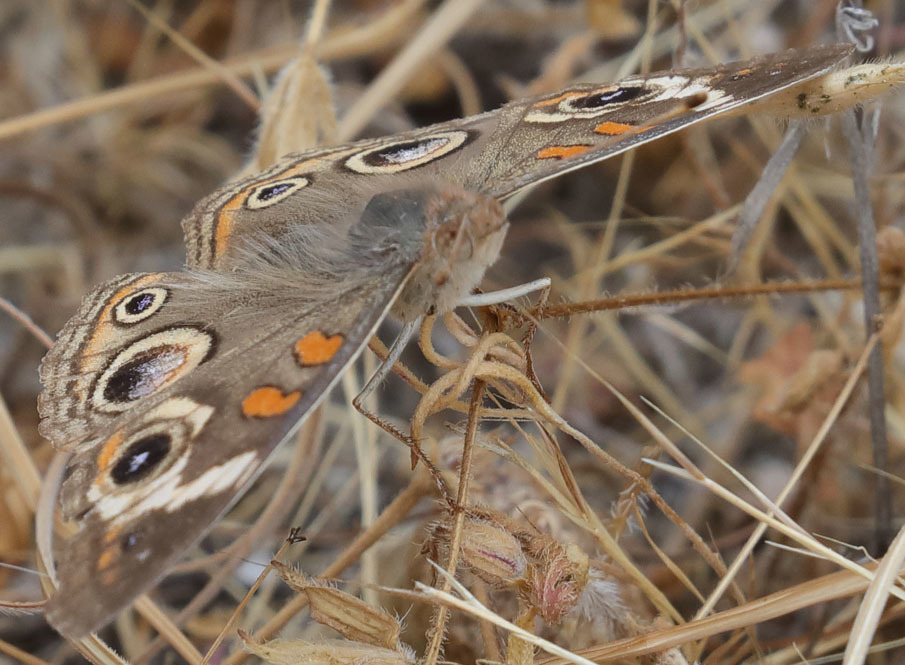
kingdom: Animalia
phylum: Arthropoda
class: Insecta
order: Lepidoptera
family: Nymphalidae
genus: Junonia
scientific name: Junonia grisea
